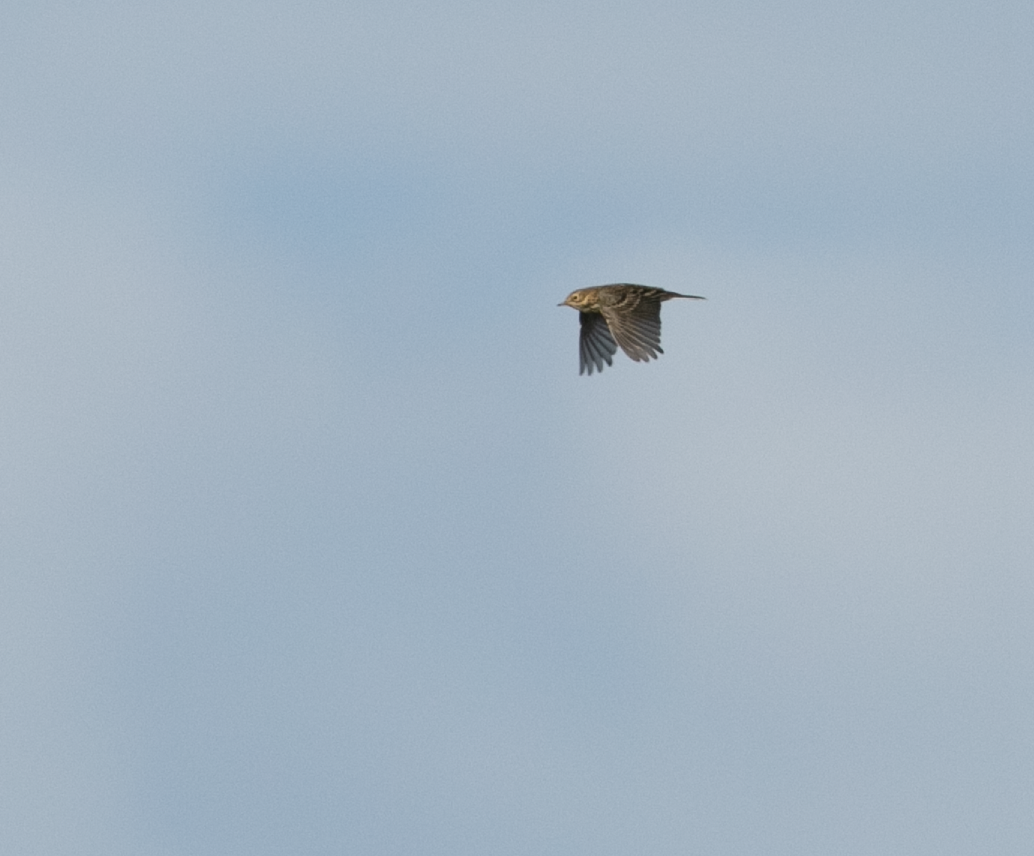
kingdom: Animalia
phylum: Chordata
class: Aves
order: Passeriformes
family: Motacillidae
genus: Anthus
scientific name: Anthus pratensis
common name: Meadow pipit
